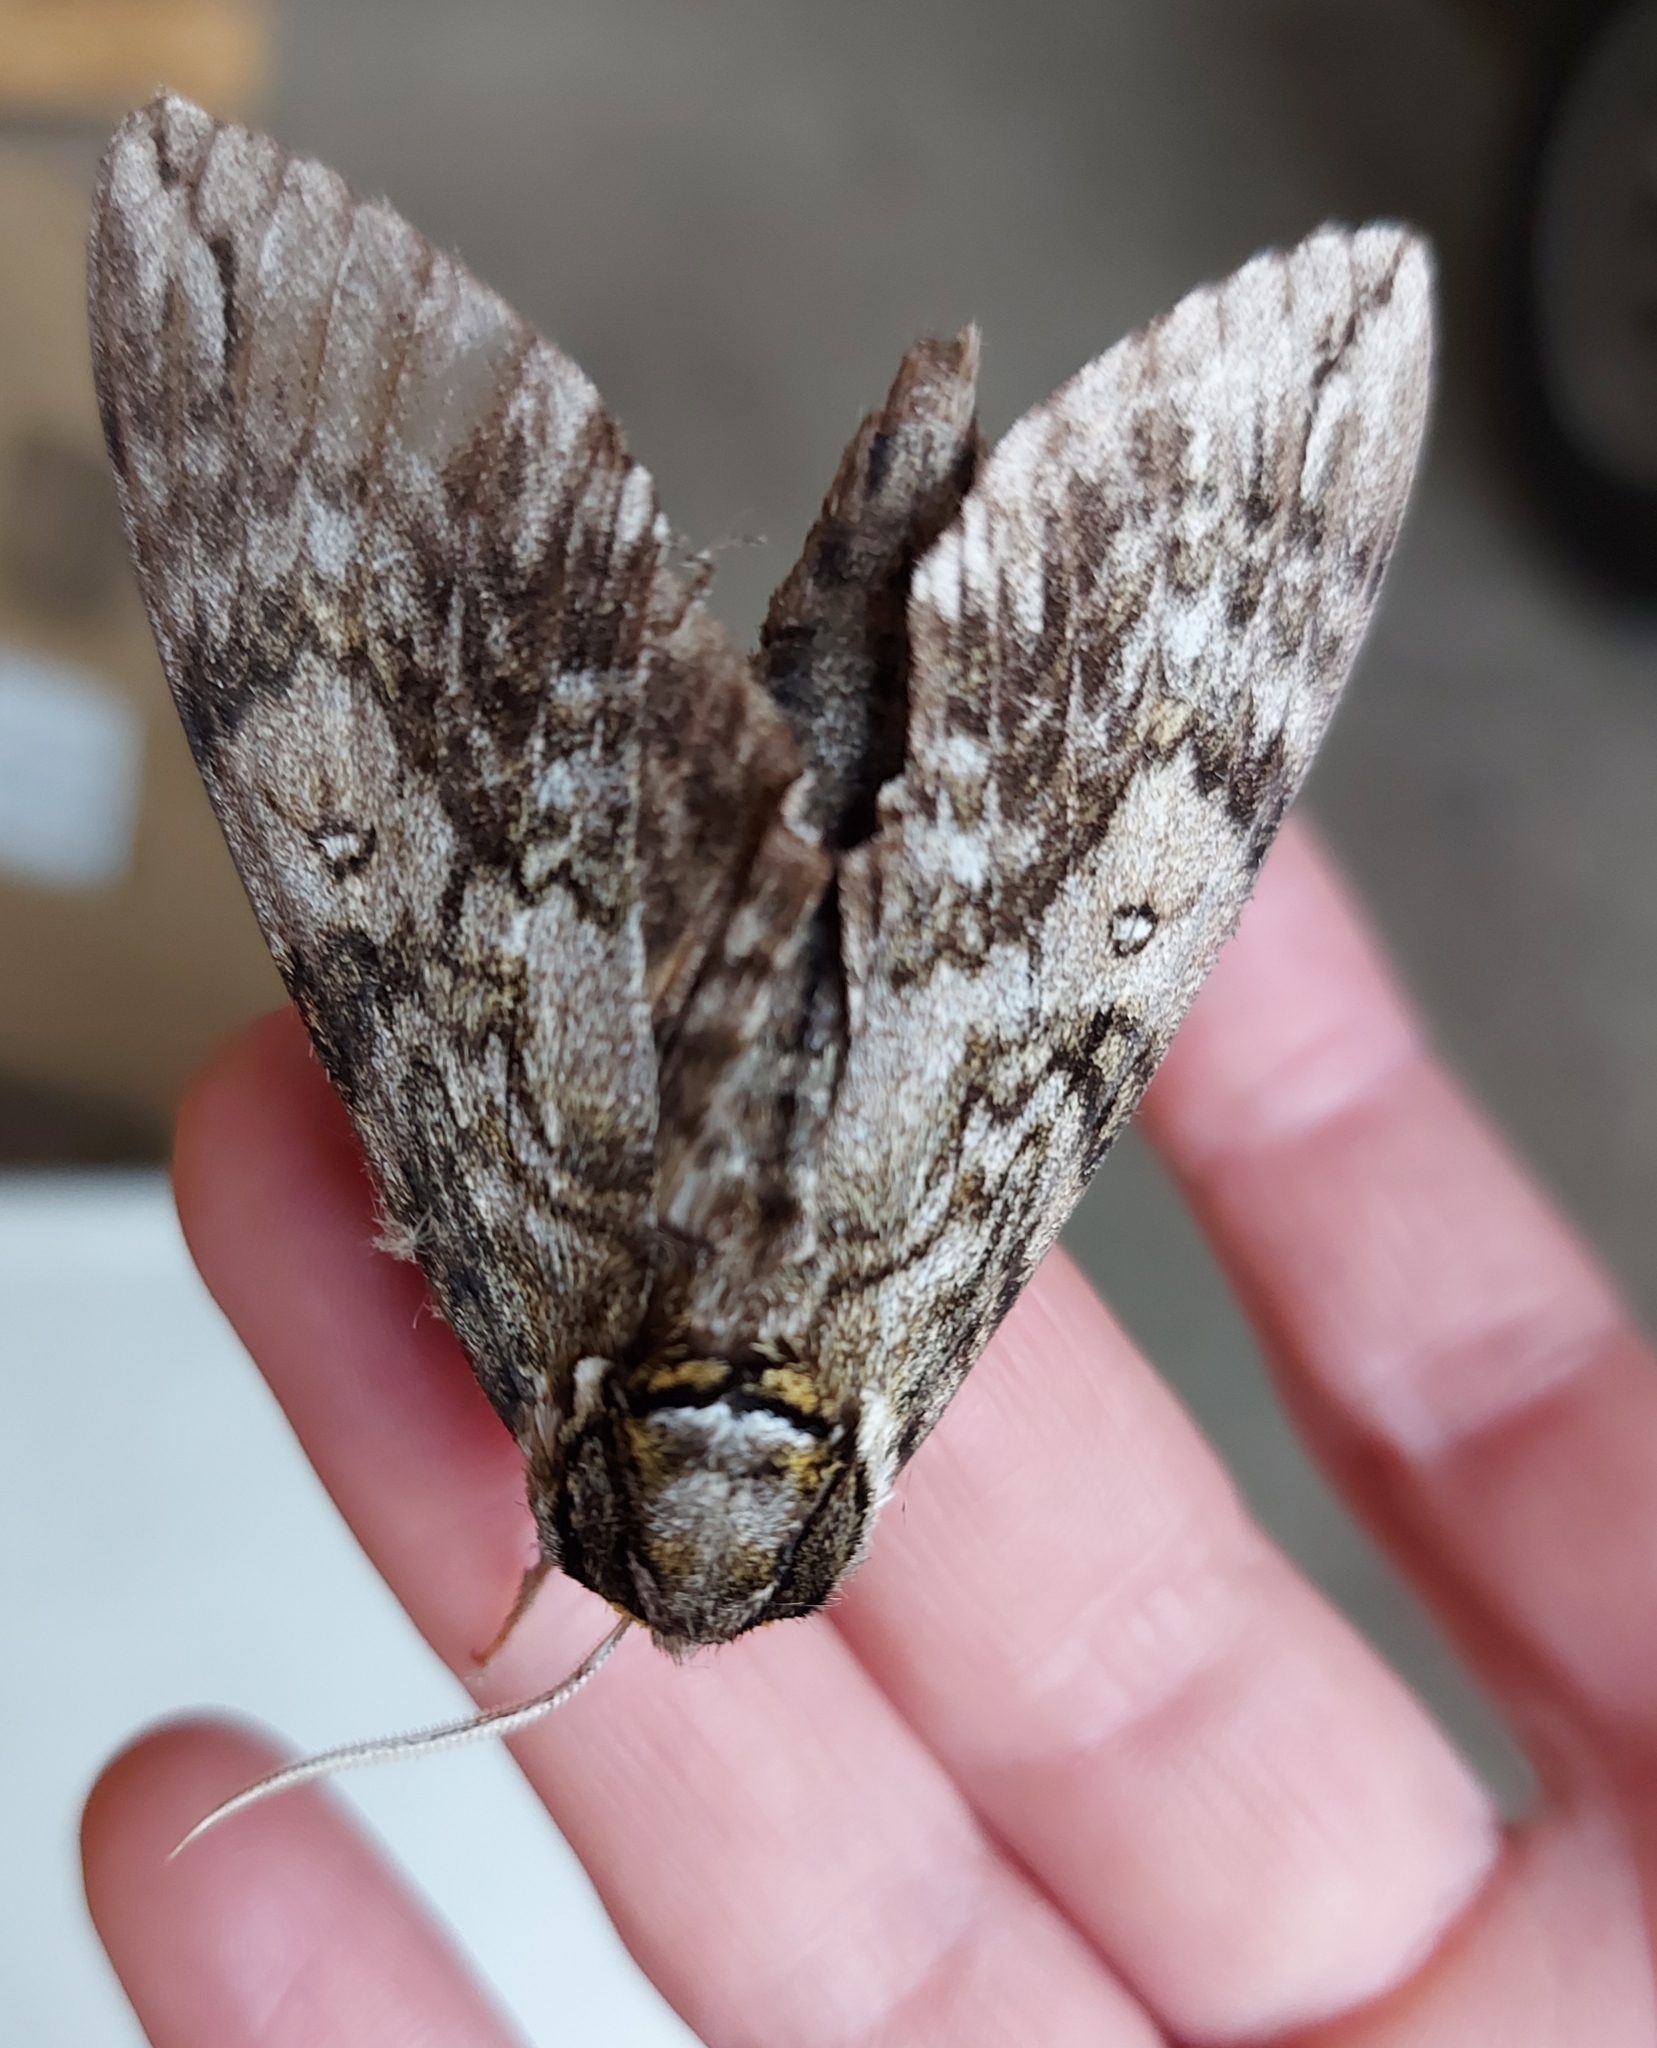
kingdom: Animalia
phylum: Arthropoda
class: Insecta
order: Lepidoptera
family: Sphingidae
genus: Ceratomia
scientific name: Ceratomia undulosa
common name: Waved sphinx
